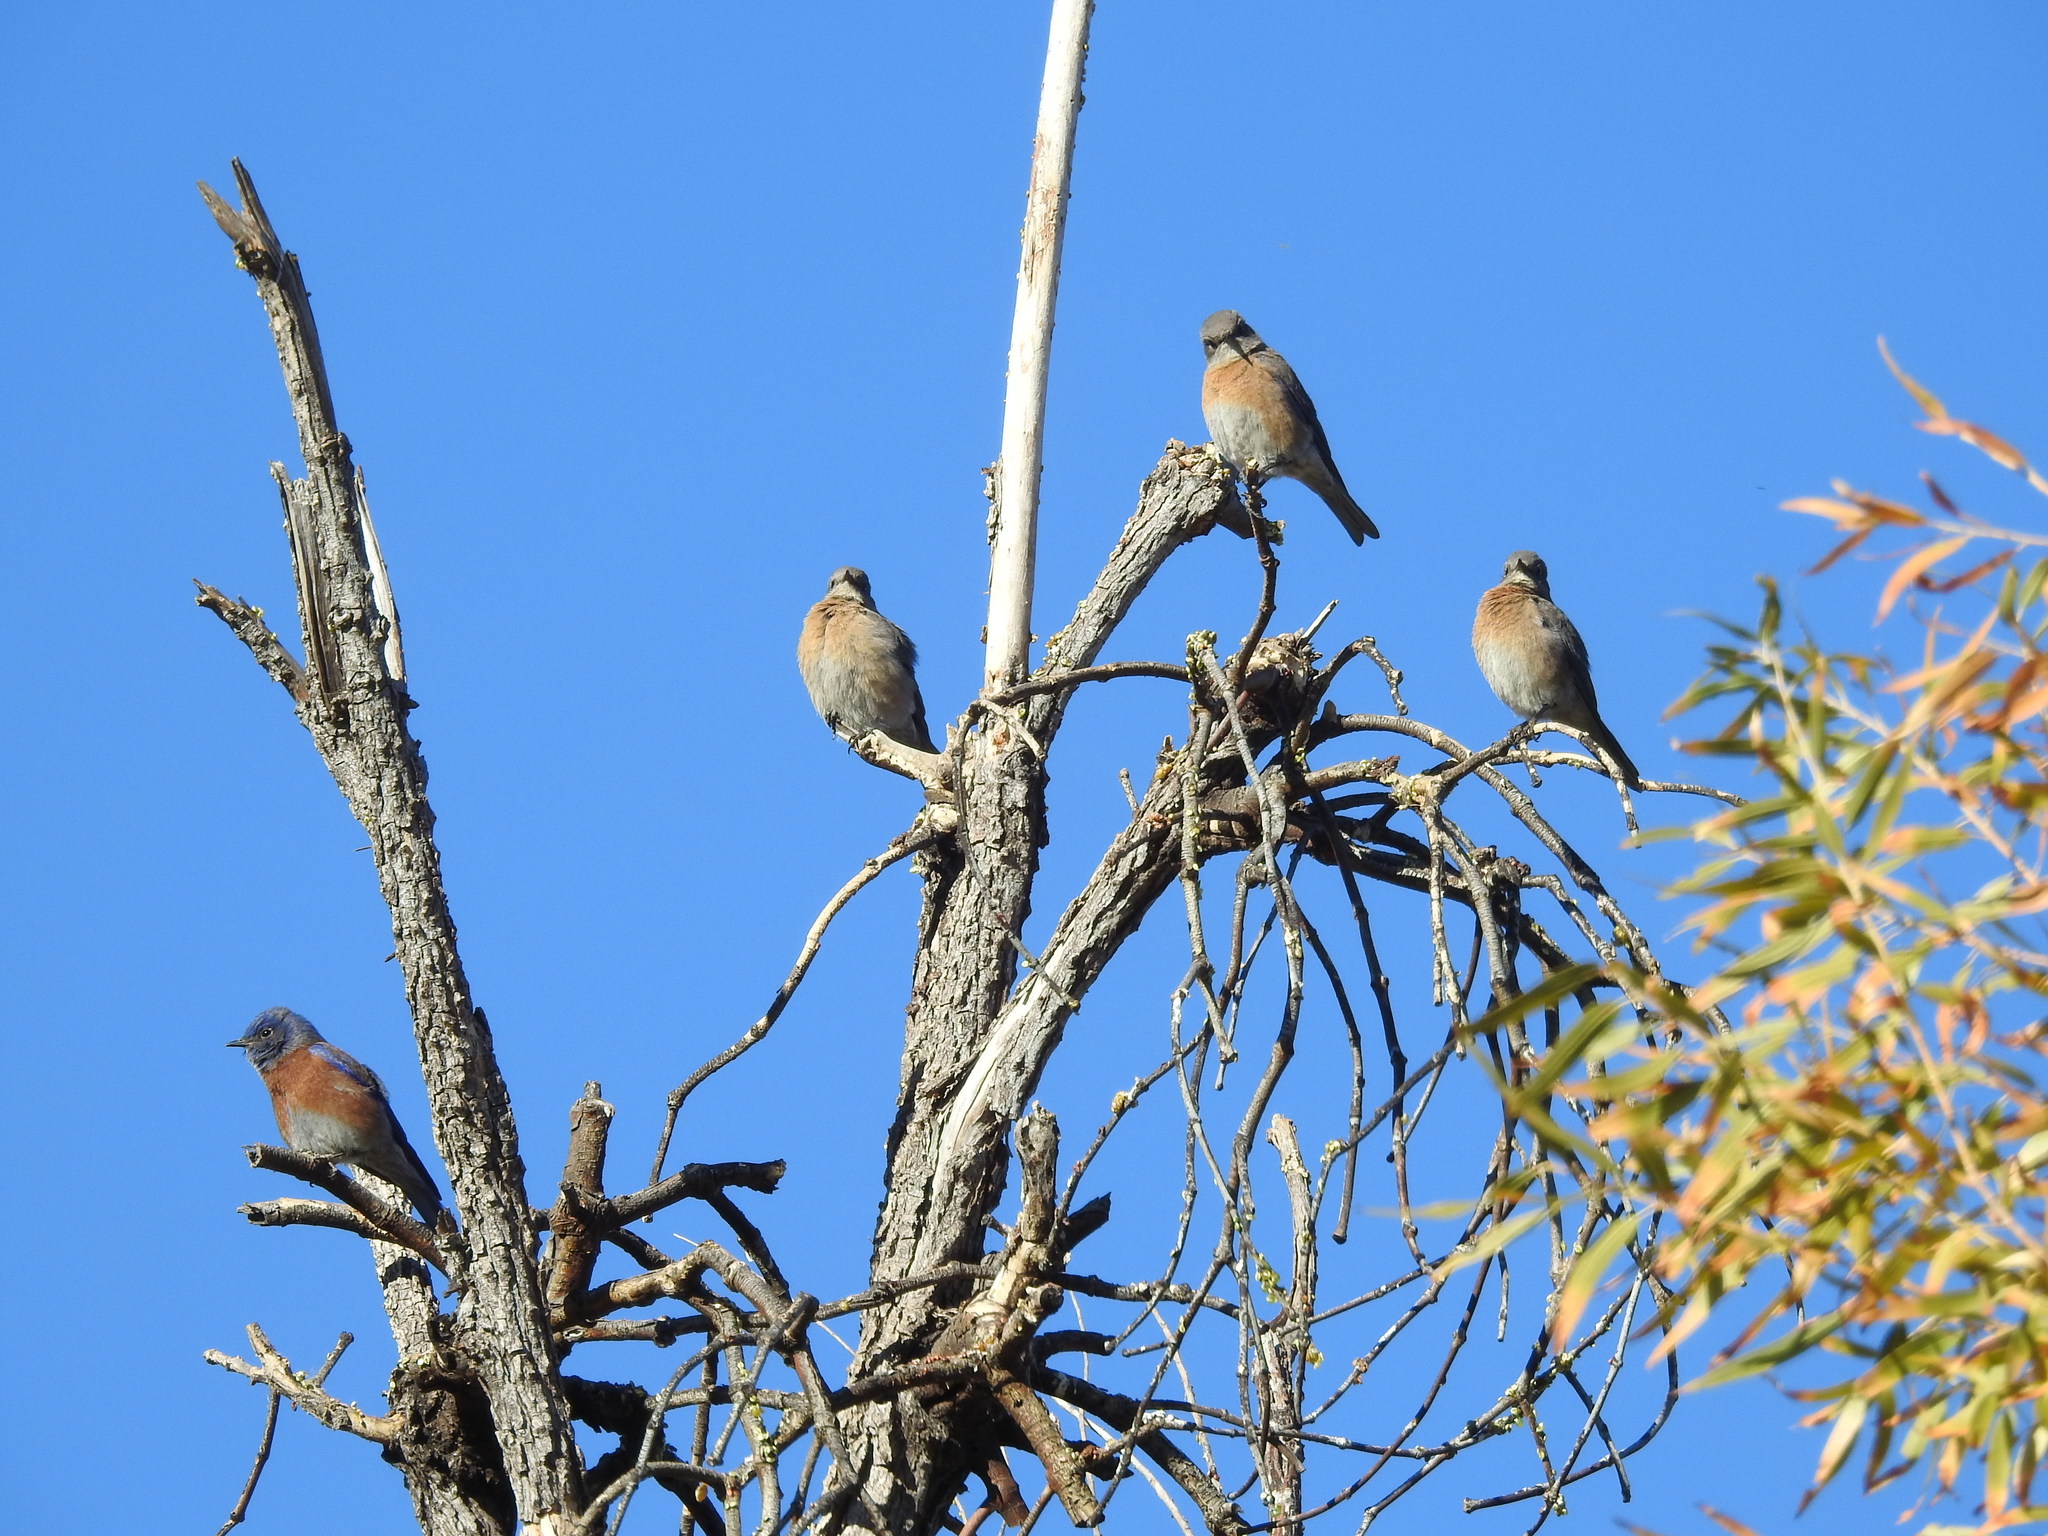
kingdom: Animalia
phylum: Chordata
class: Aves
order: Passeriformes
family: Turdidae
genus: Sialia
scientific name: Sialia mexicana
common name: Western bluebird
